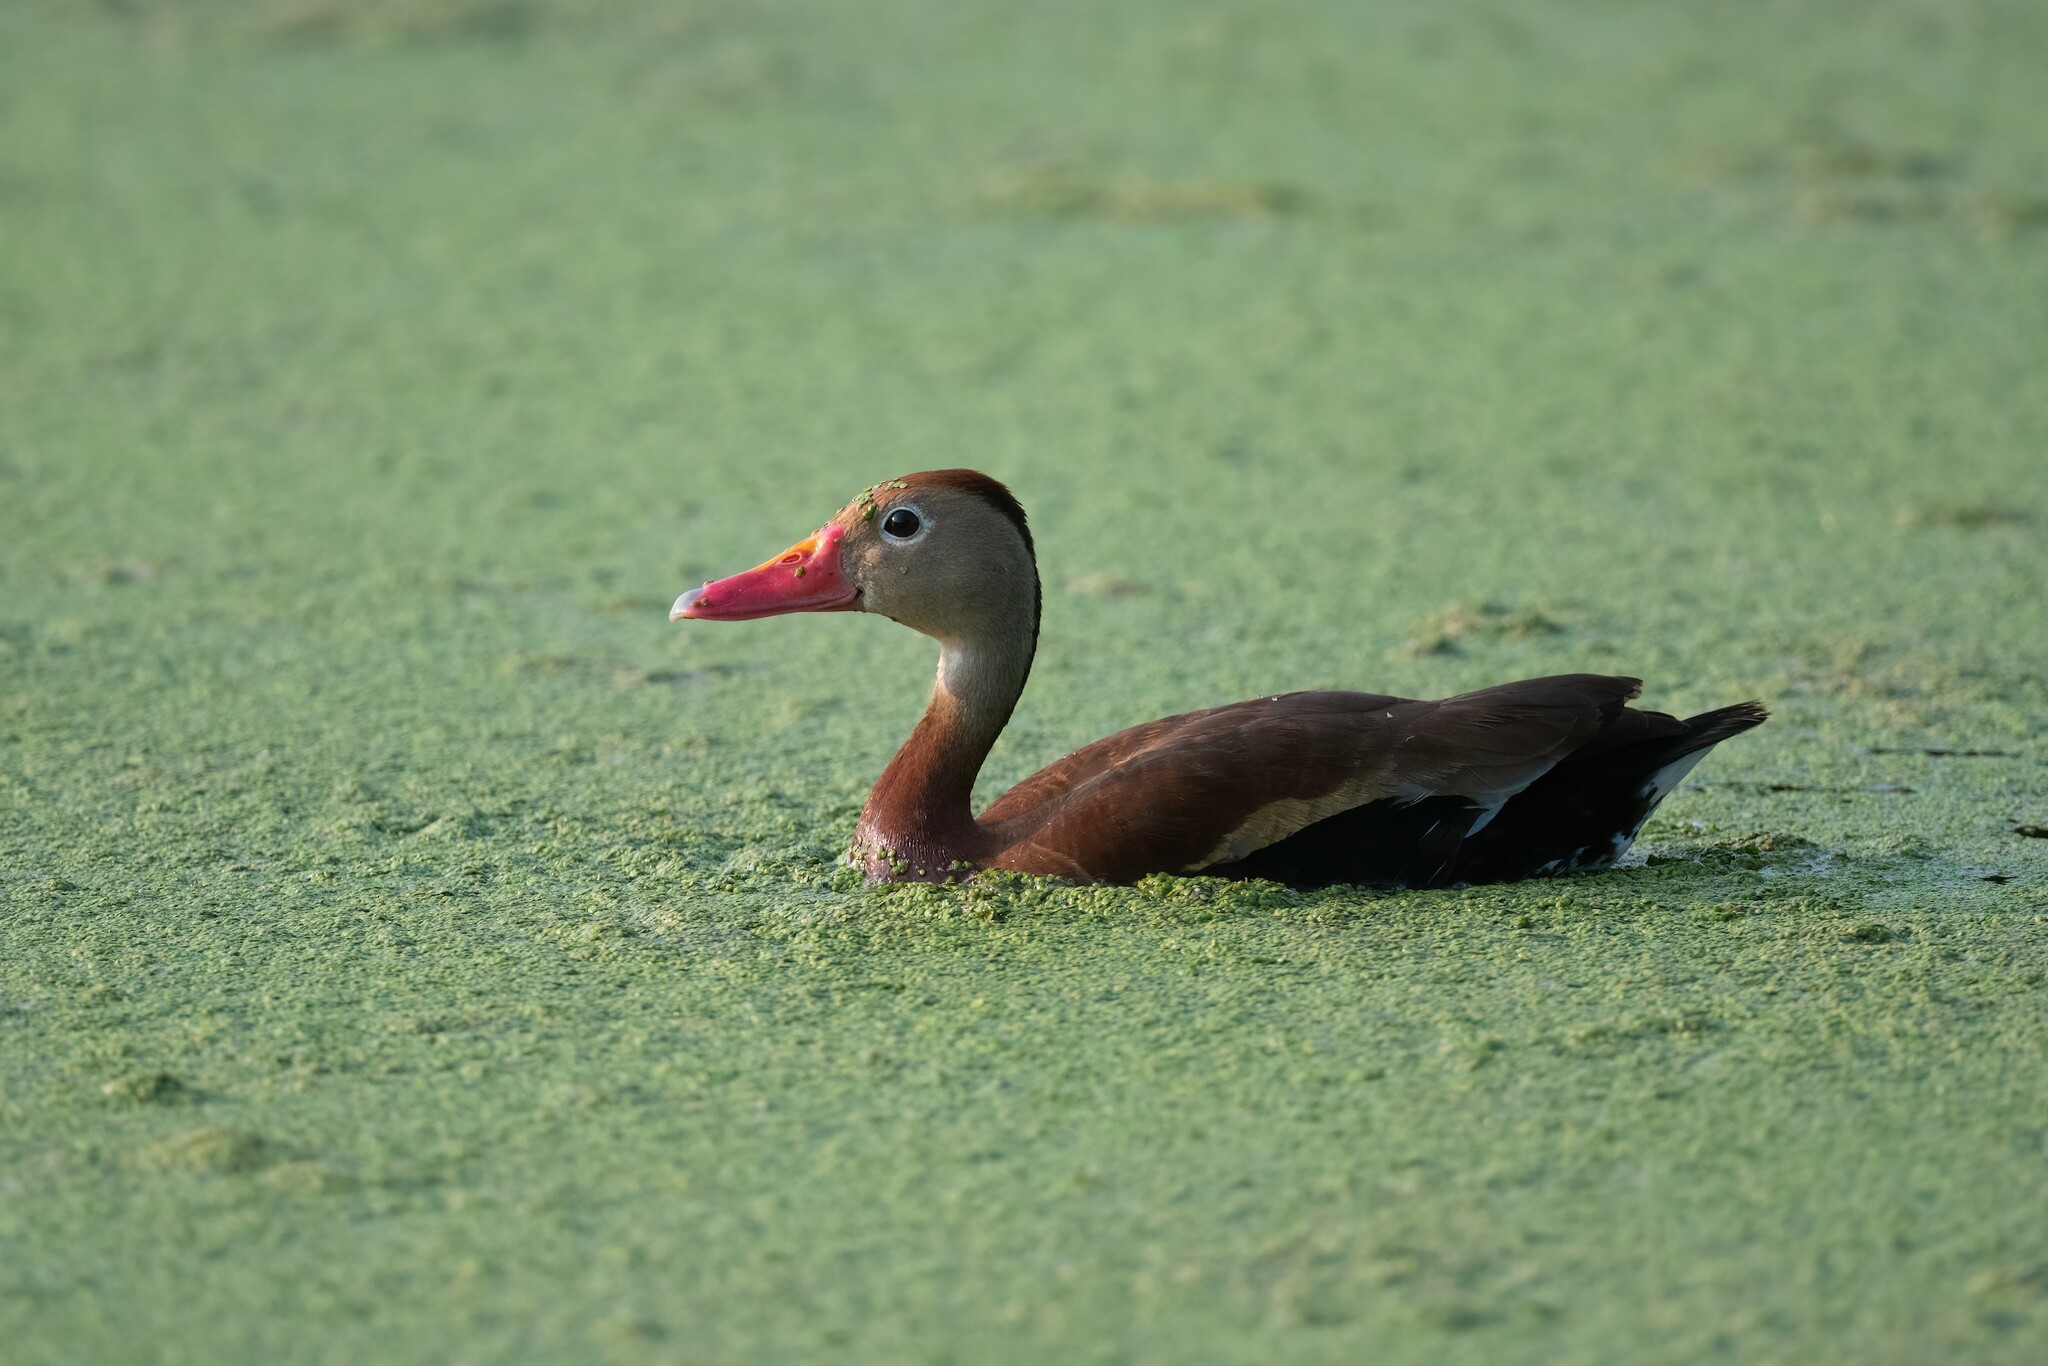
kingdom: Animalia
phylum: Chordata
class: Aves
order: Anseriformes
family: Anatidae
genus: Dendrocygna
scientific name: Dendrocygna autumnalis
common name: Black-bellied whistling duck
